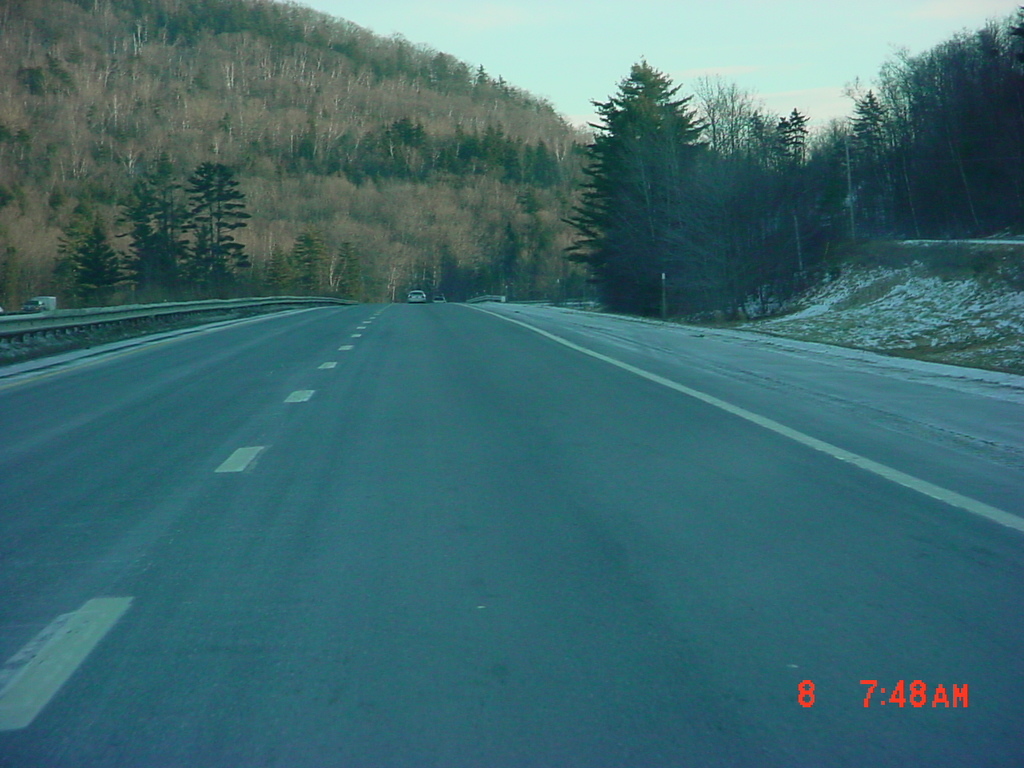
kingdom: Plantae
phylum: Tracheophyta
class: Pinopsida
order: Pinales
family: Pinaceae
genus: Pinus
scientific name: Pinus strobus
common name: Weymouth pine
